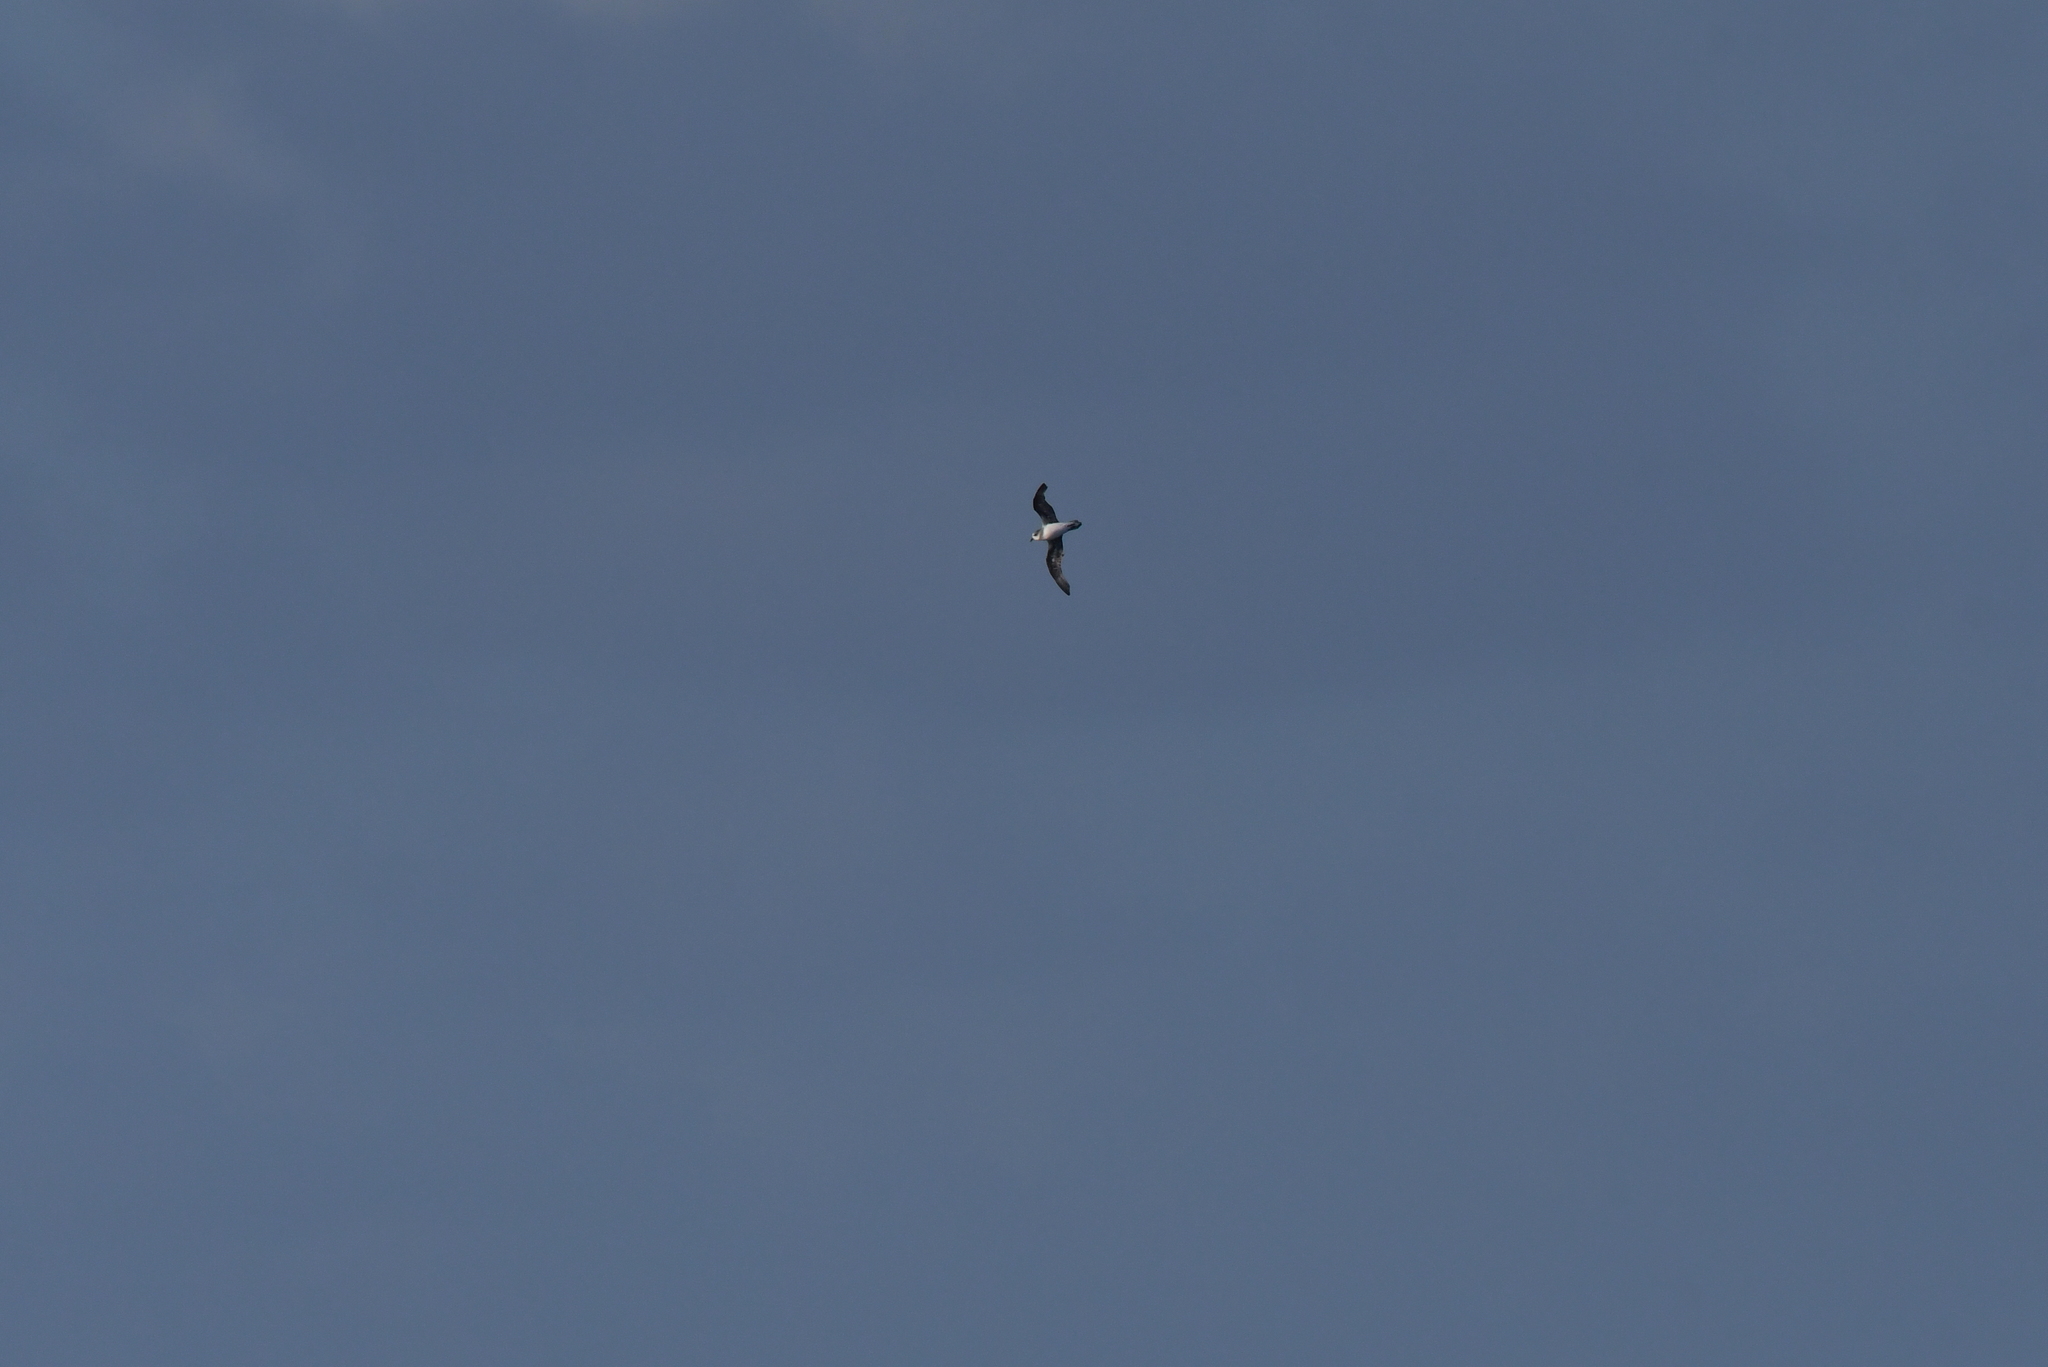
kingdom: Animalia
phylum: Chordata
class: Aves
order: Procellariiformes
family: Procellariidae
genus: Pterodroma
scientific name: Pterodroma mollis
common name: Soft-plumaged petrel
